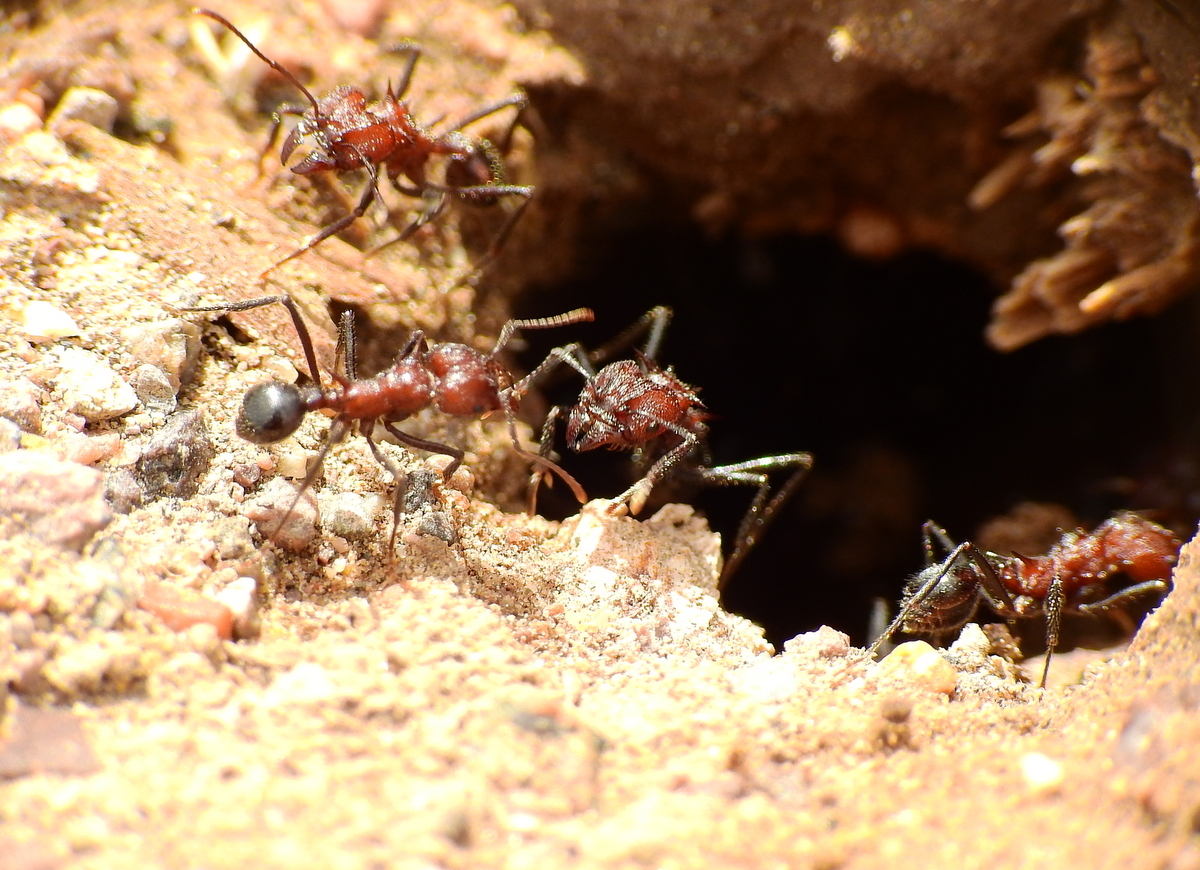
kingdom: Animalia
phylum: Arthropoda
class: Insecta
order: Hymenoptera
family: Formicidae
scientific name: Formicidae
